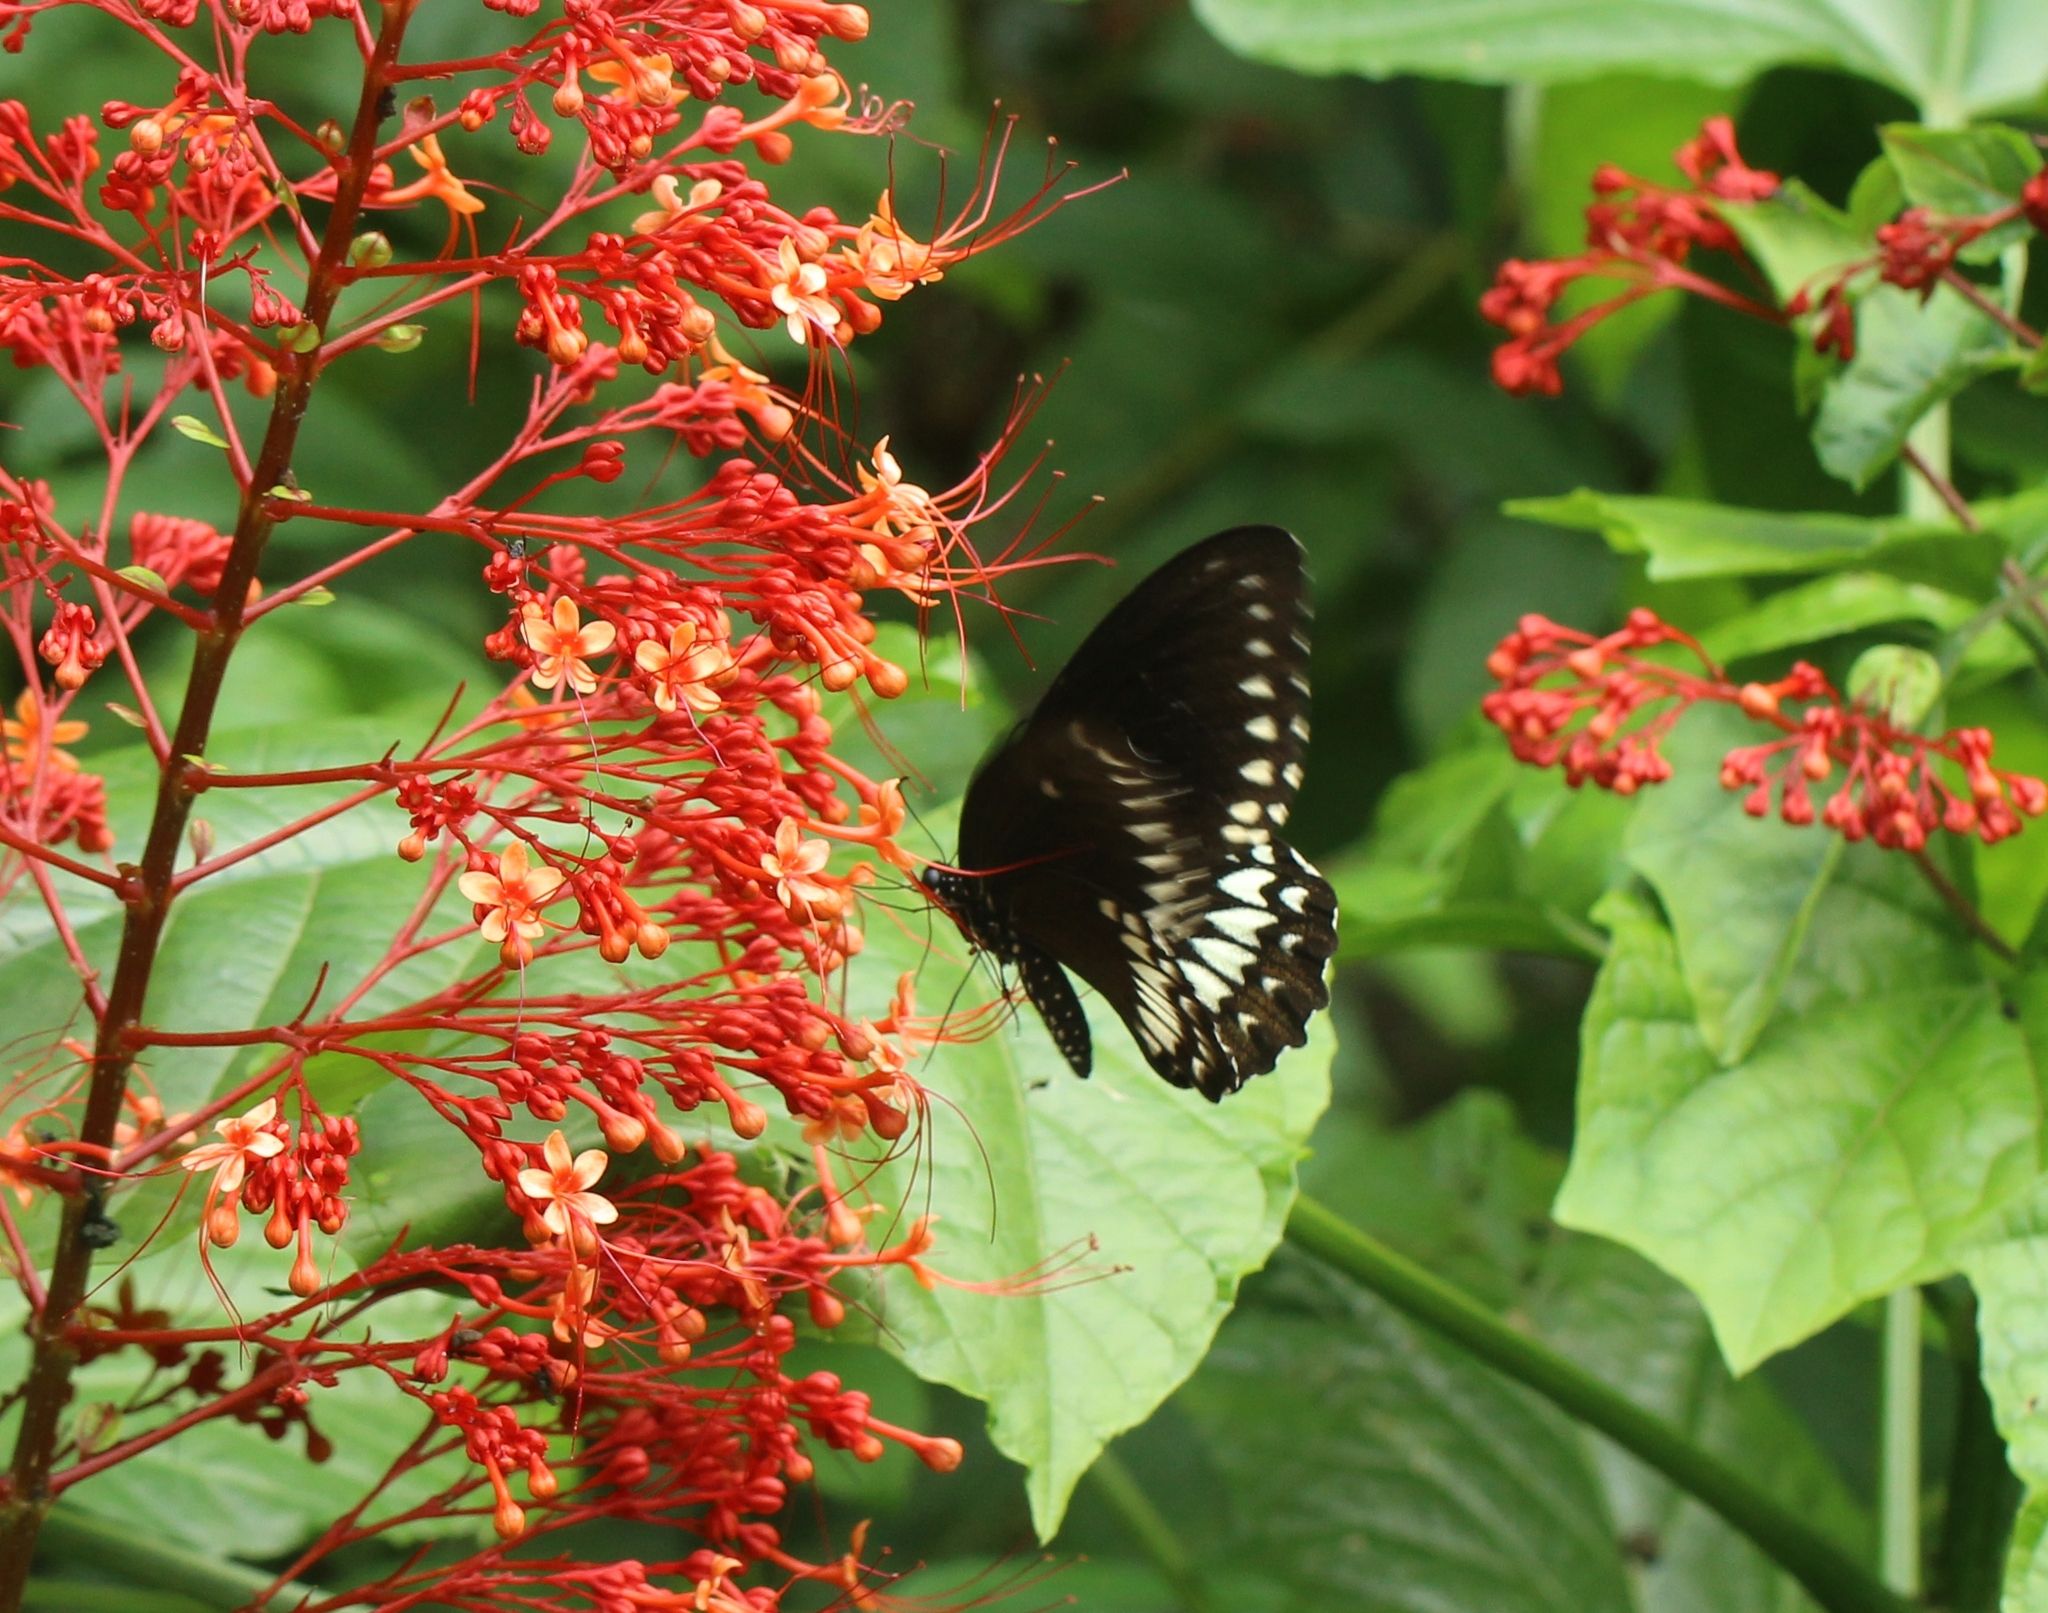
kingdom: Animalia
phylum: Arthropoda
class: Insecta
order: Lepidoptera
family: Papilionidae
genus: Papilio
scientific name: Papilio dravidarum
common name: Malabar raven
